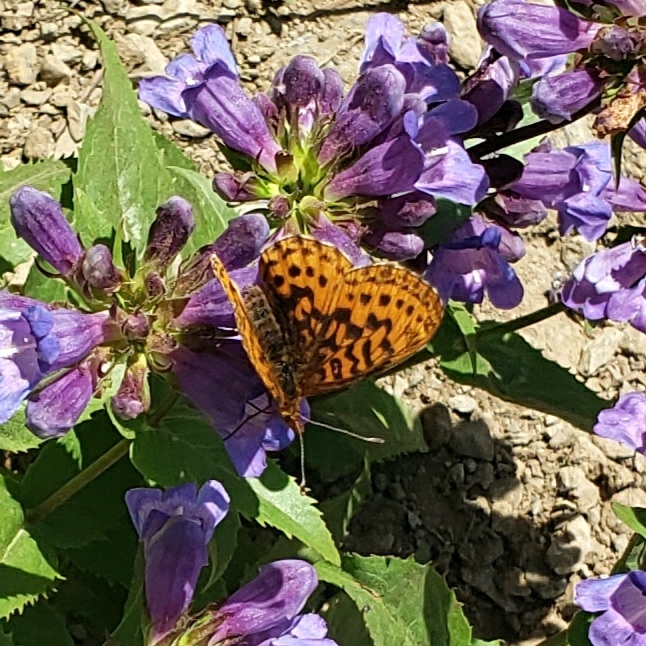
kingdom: Animalia
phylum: Arthropoda
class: Insecta
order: Lepidoptera
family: Nymphalidae
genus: Boloria
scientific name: Boloria epithore
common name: Pacific fritillary
